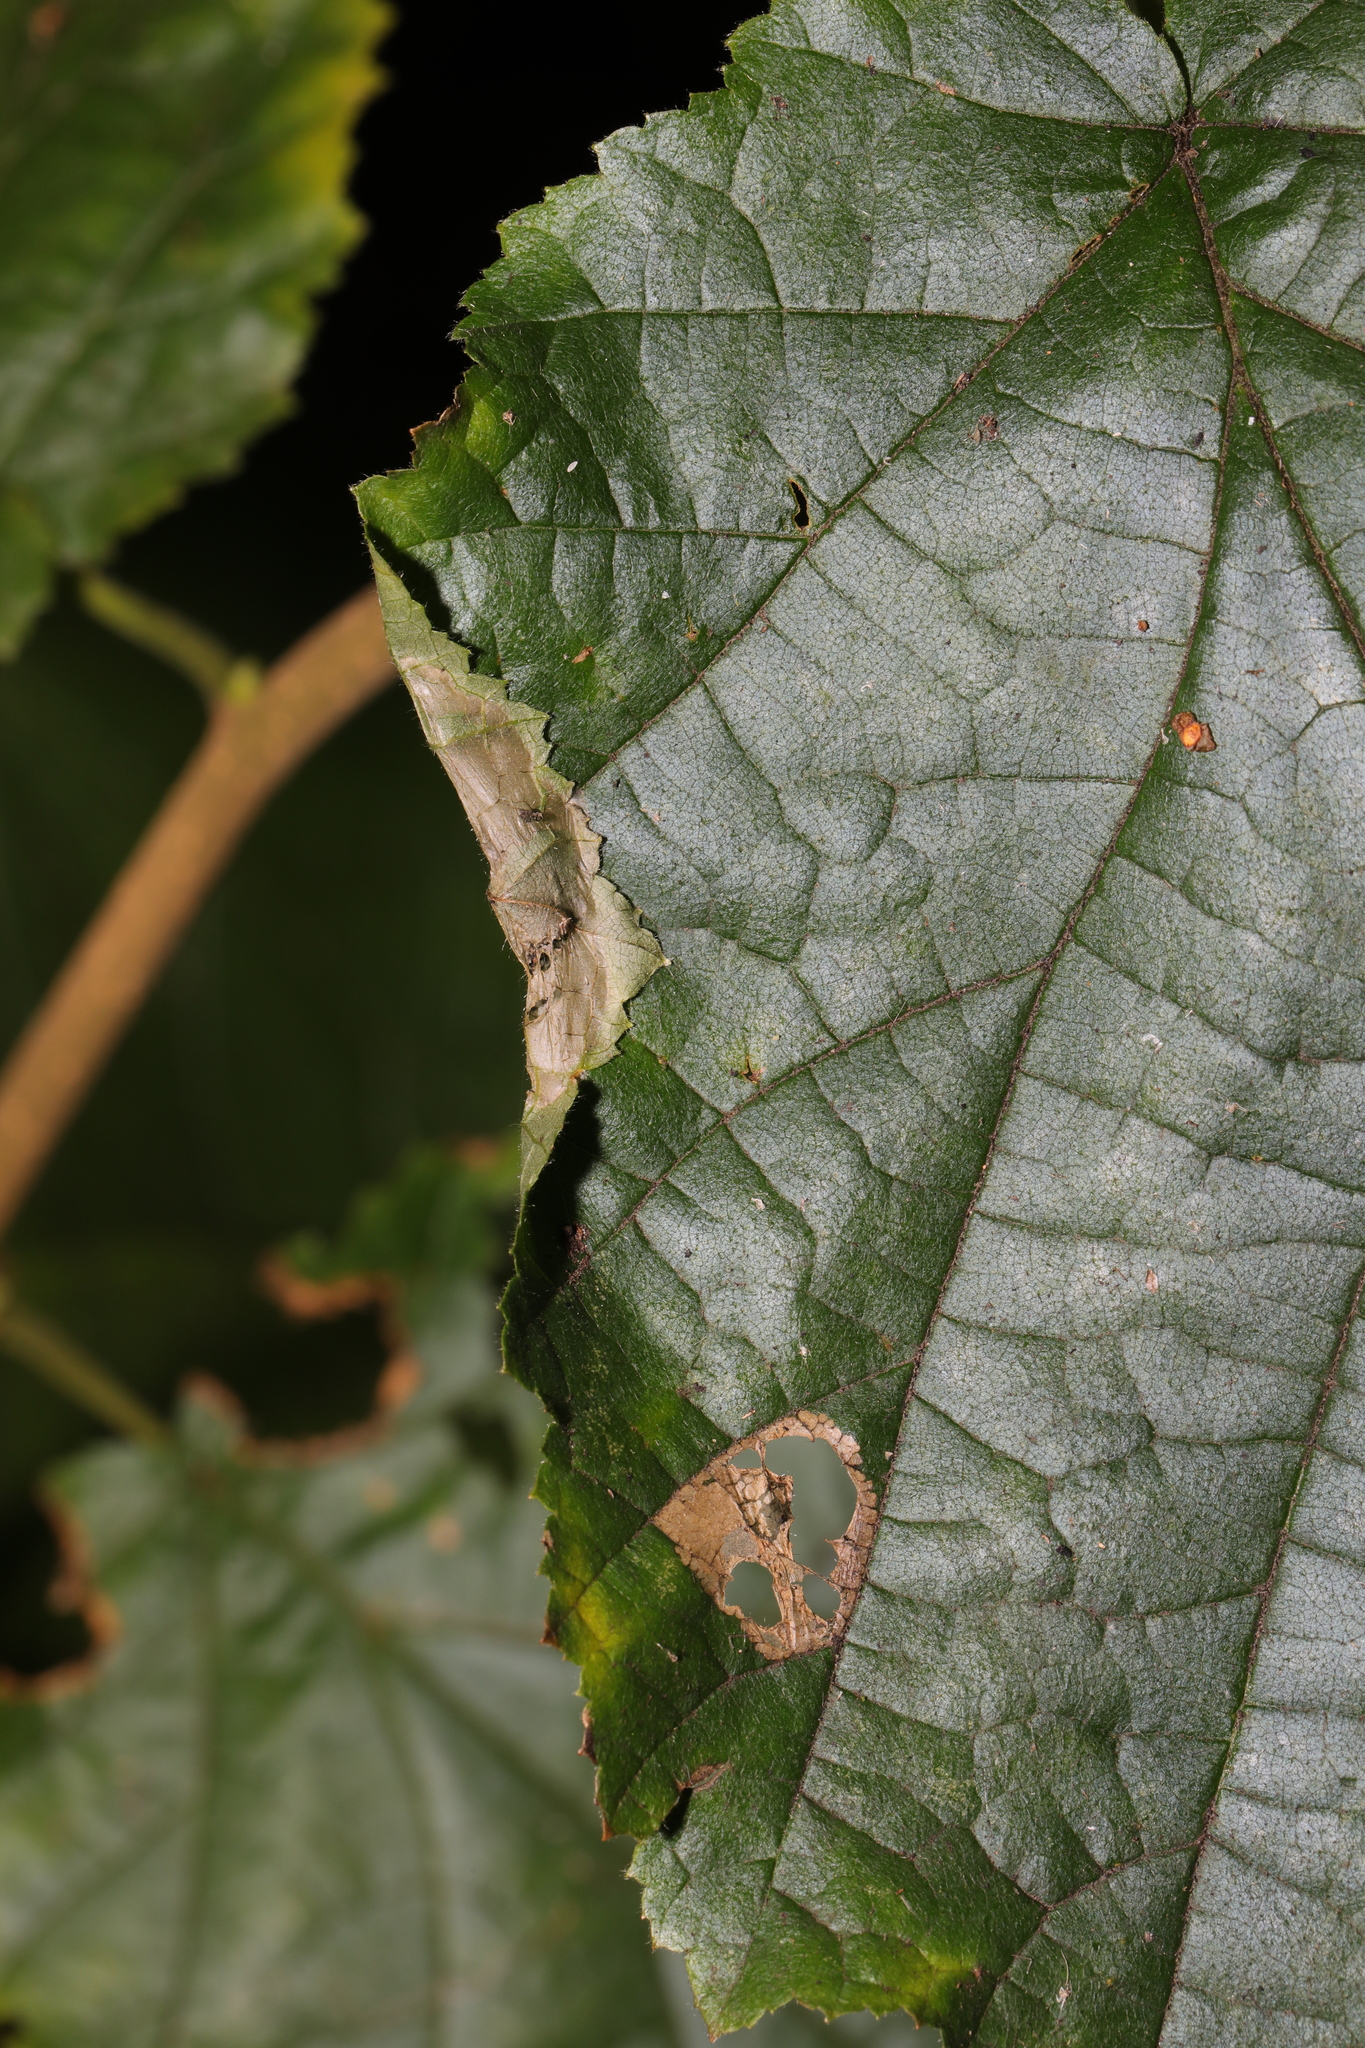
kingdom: Animalia
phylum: Arthropoda
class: Insecta
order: Lepidoptera
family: Gracillariidae
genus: Parornix
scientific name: Parornix devoniella
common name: Hazel slender
